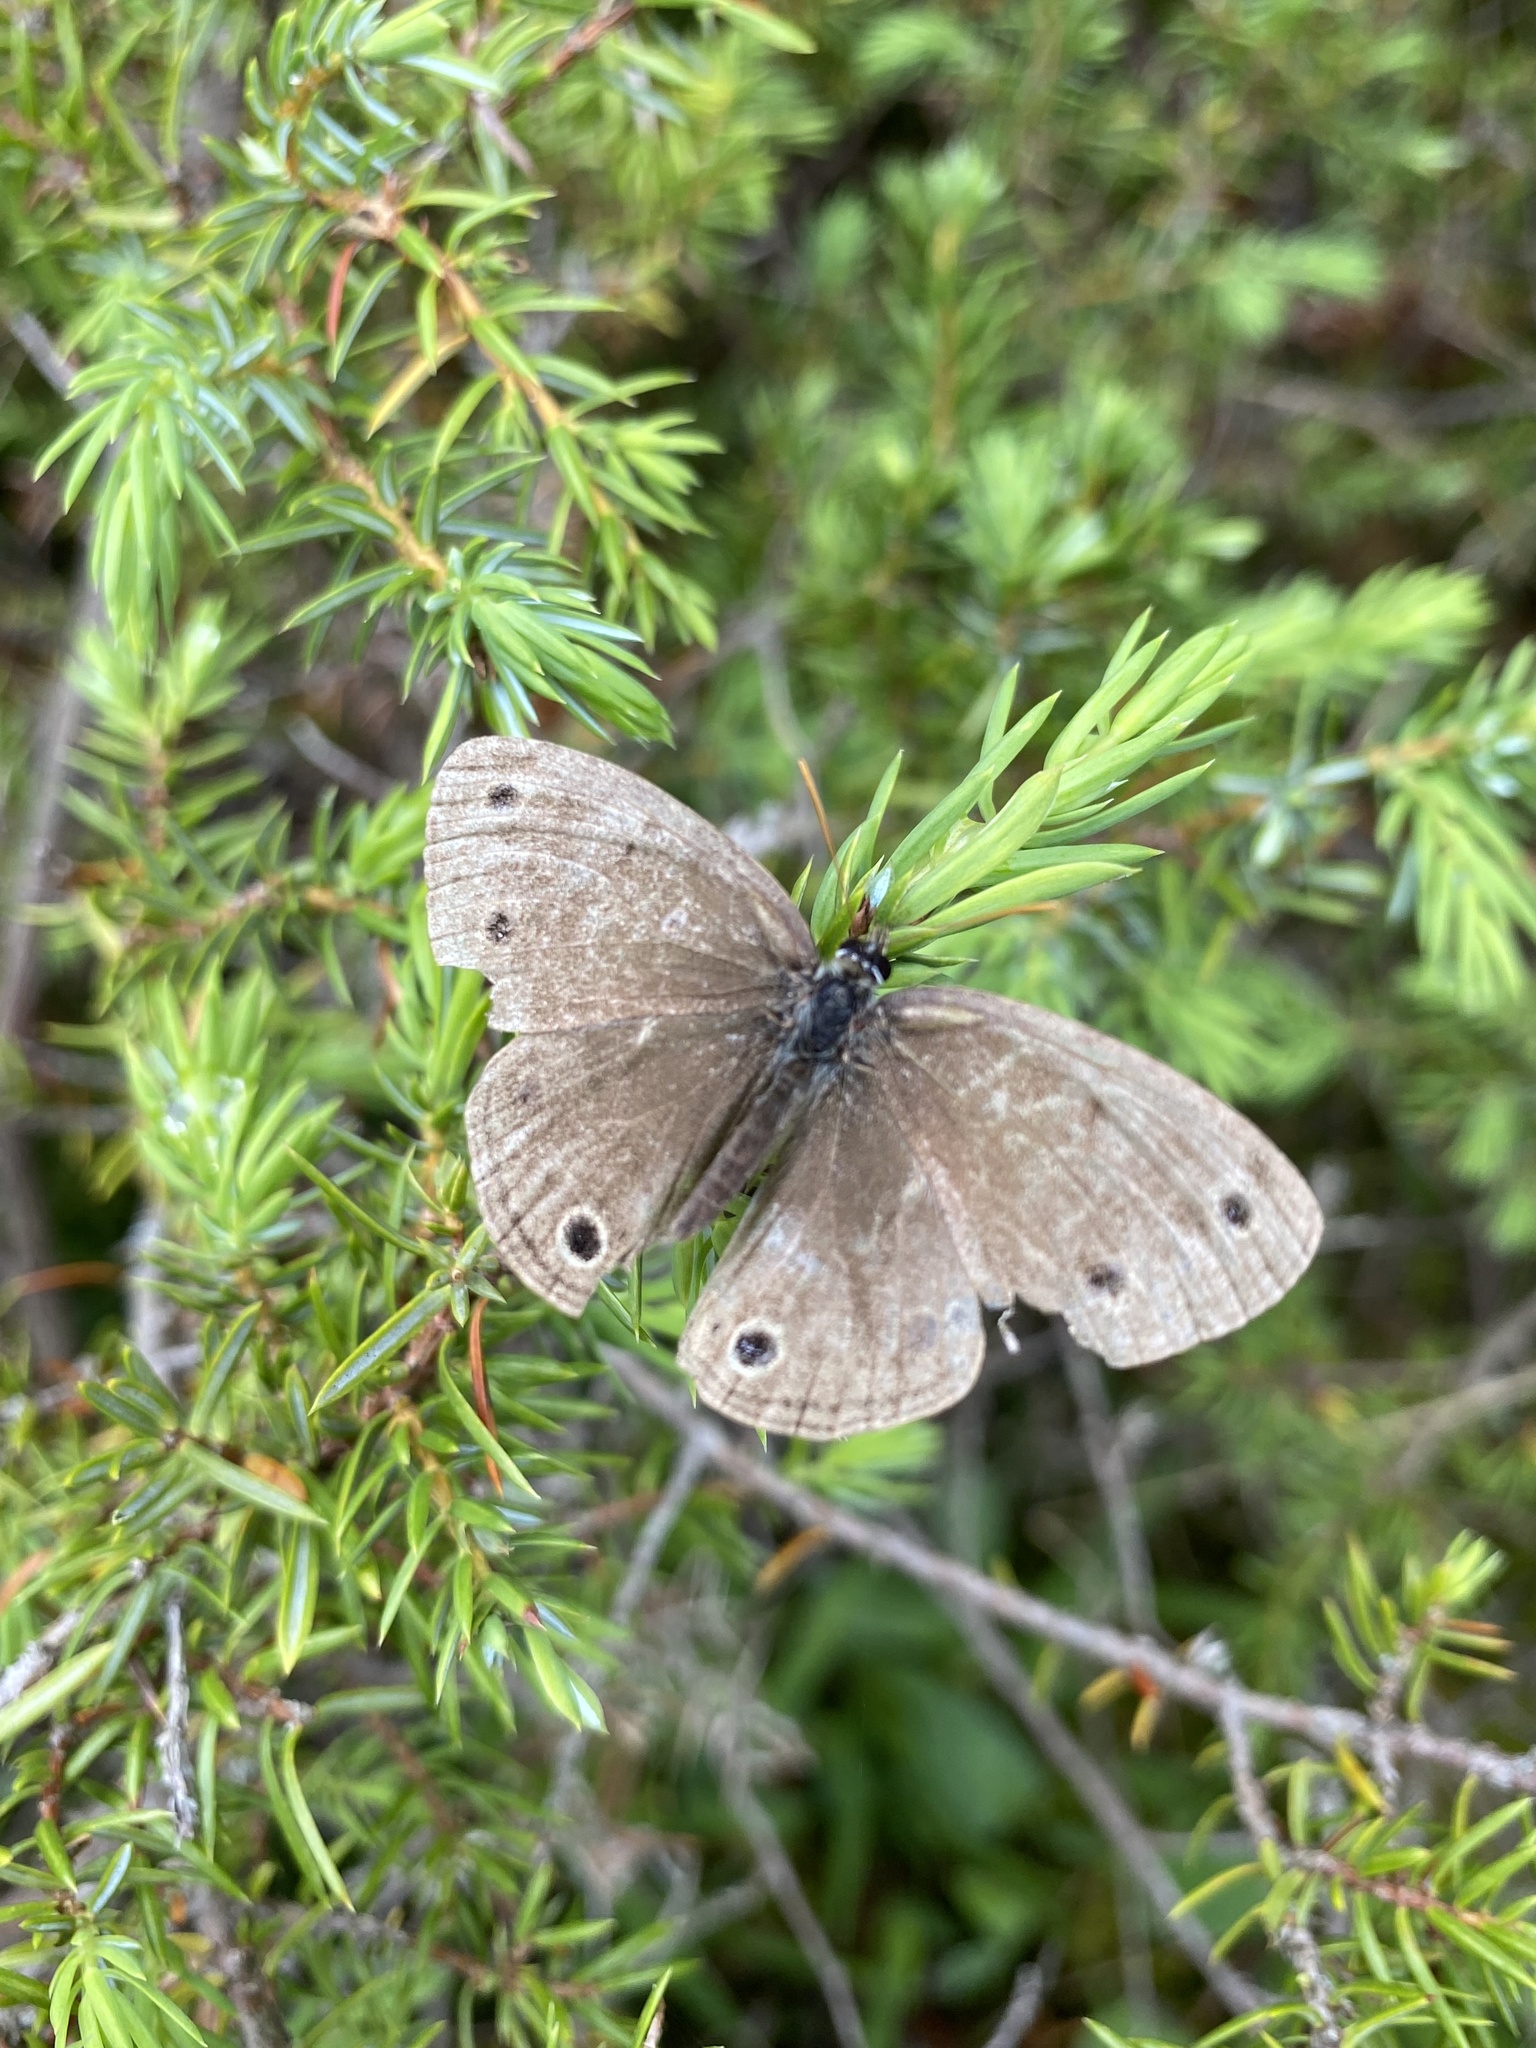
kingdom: Animalia
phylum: Arthropoda
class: Insecta
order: Lepidoptera
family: Nymphalidae
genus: Euptychia
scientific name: Euptychia cymela
